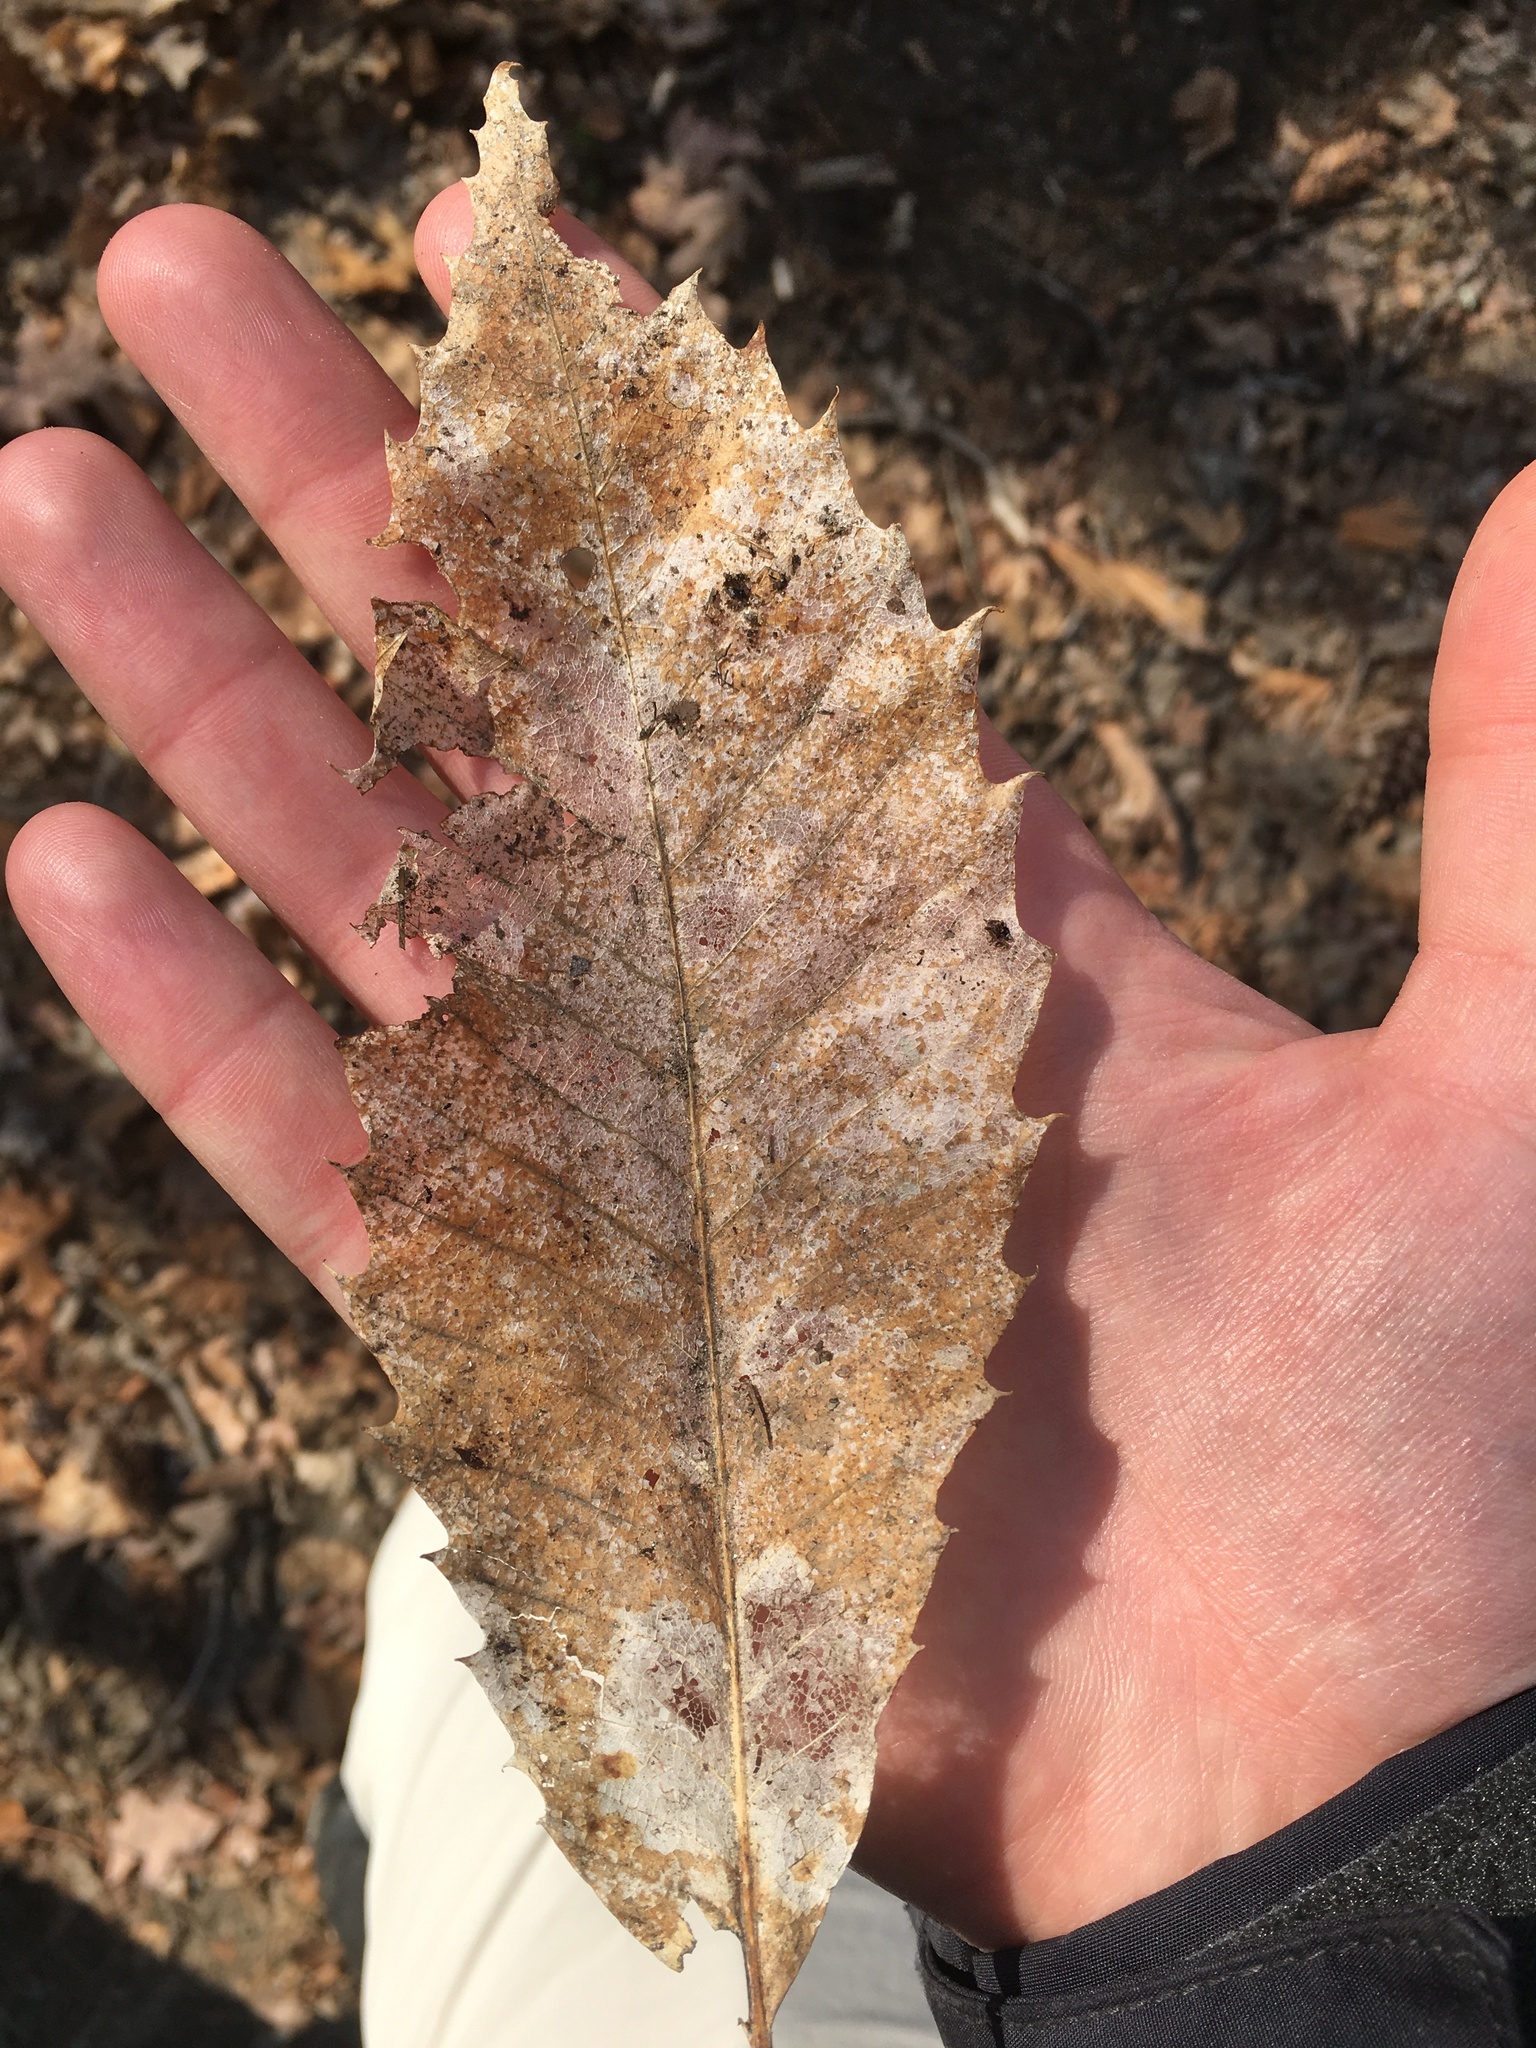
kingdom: Plantae
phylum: Tracheophyta
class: Magnoliopsida
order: Fagales
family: Fagaceae
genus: Castanea
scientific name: Castanea dentata
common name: American chestnut
